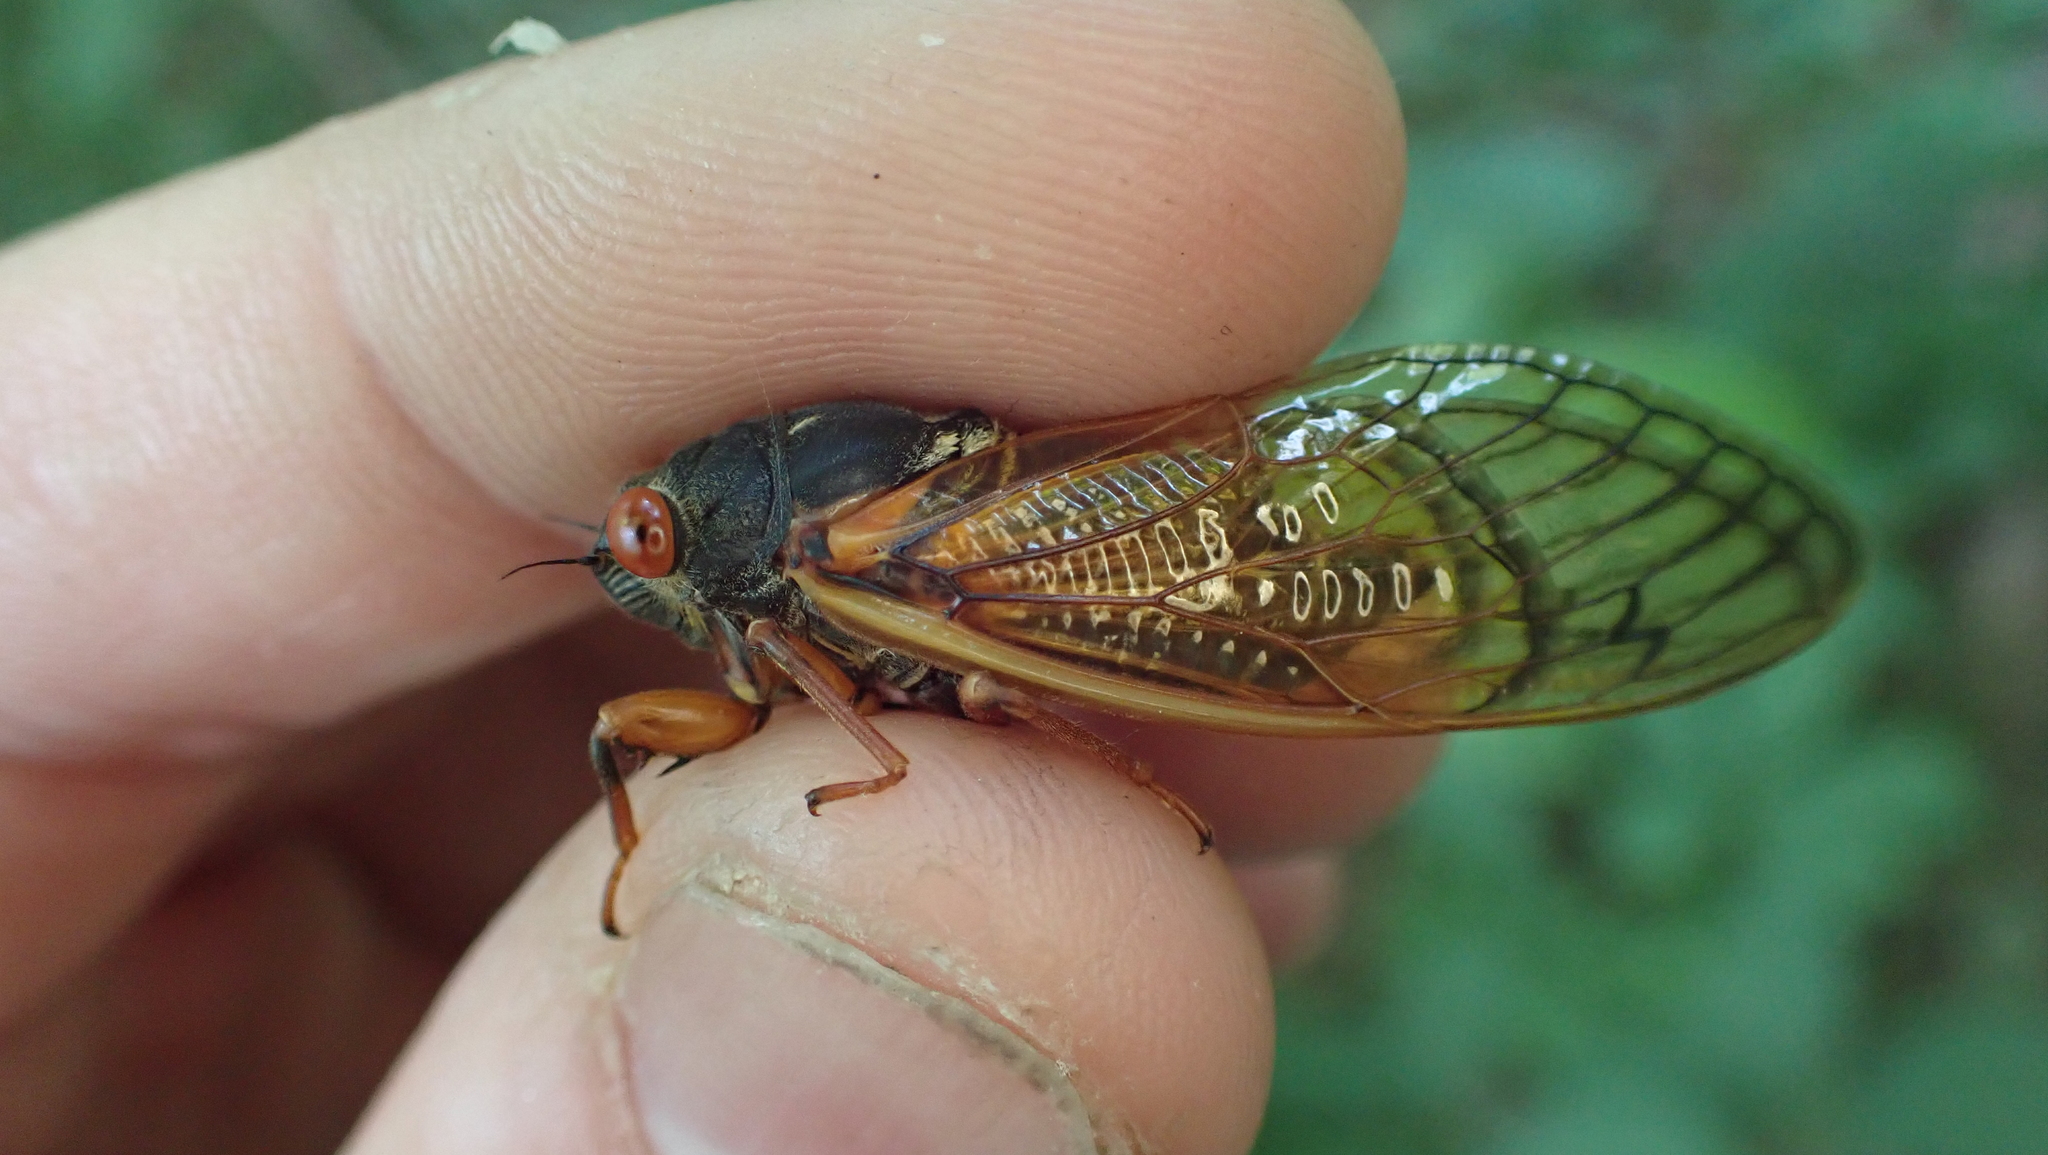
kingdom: Animalia
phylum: Arthropoda
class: Insecta
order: Hemiptera
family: Cicadidae
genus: Magicicada
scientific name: Magicicada septendecula
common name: Decula periodical cicada
